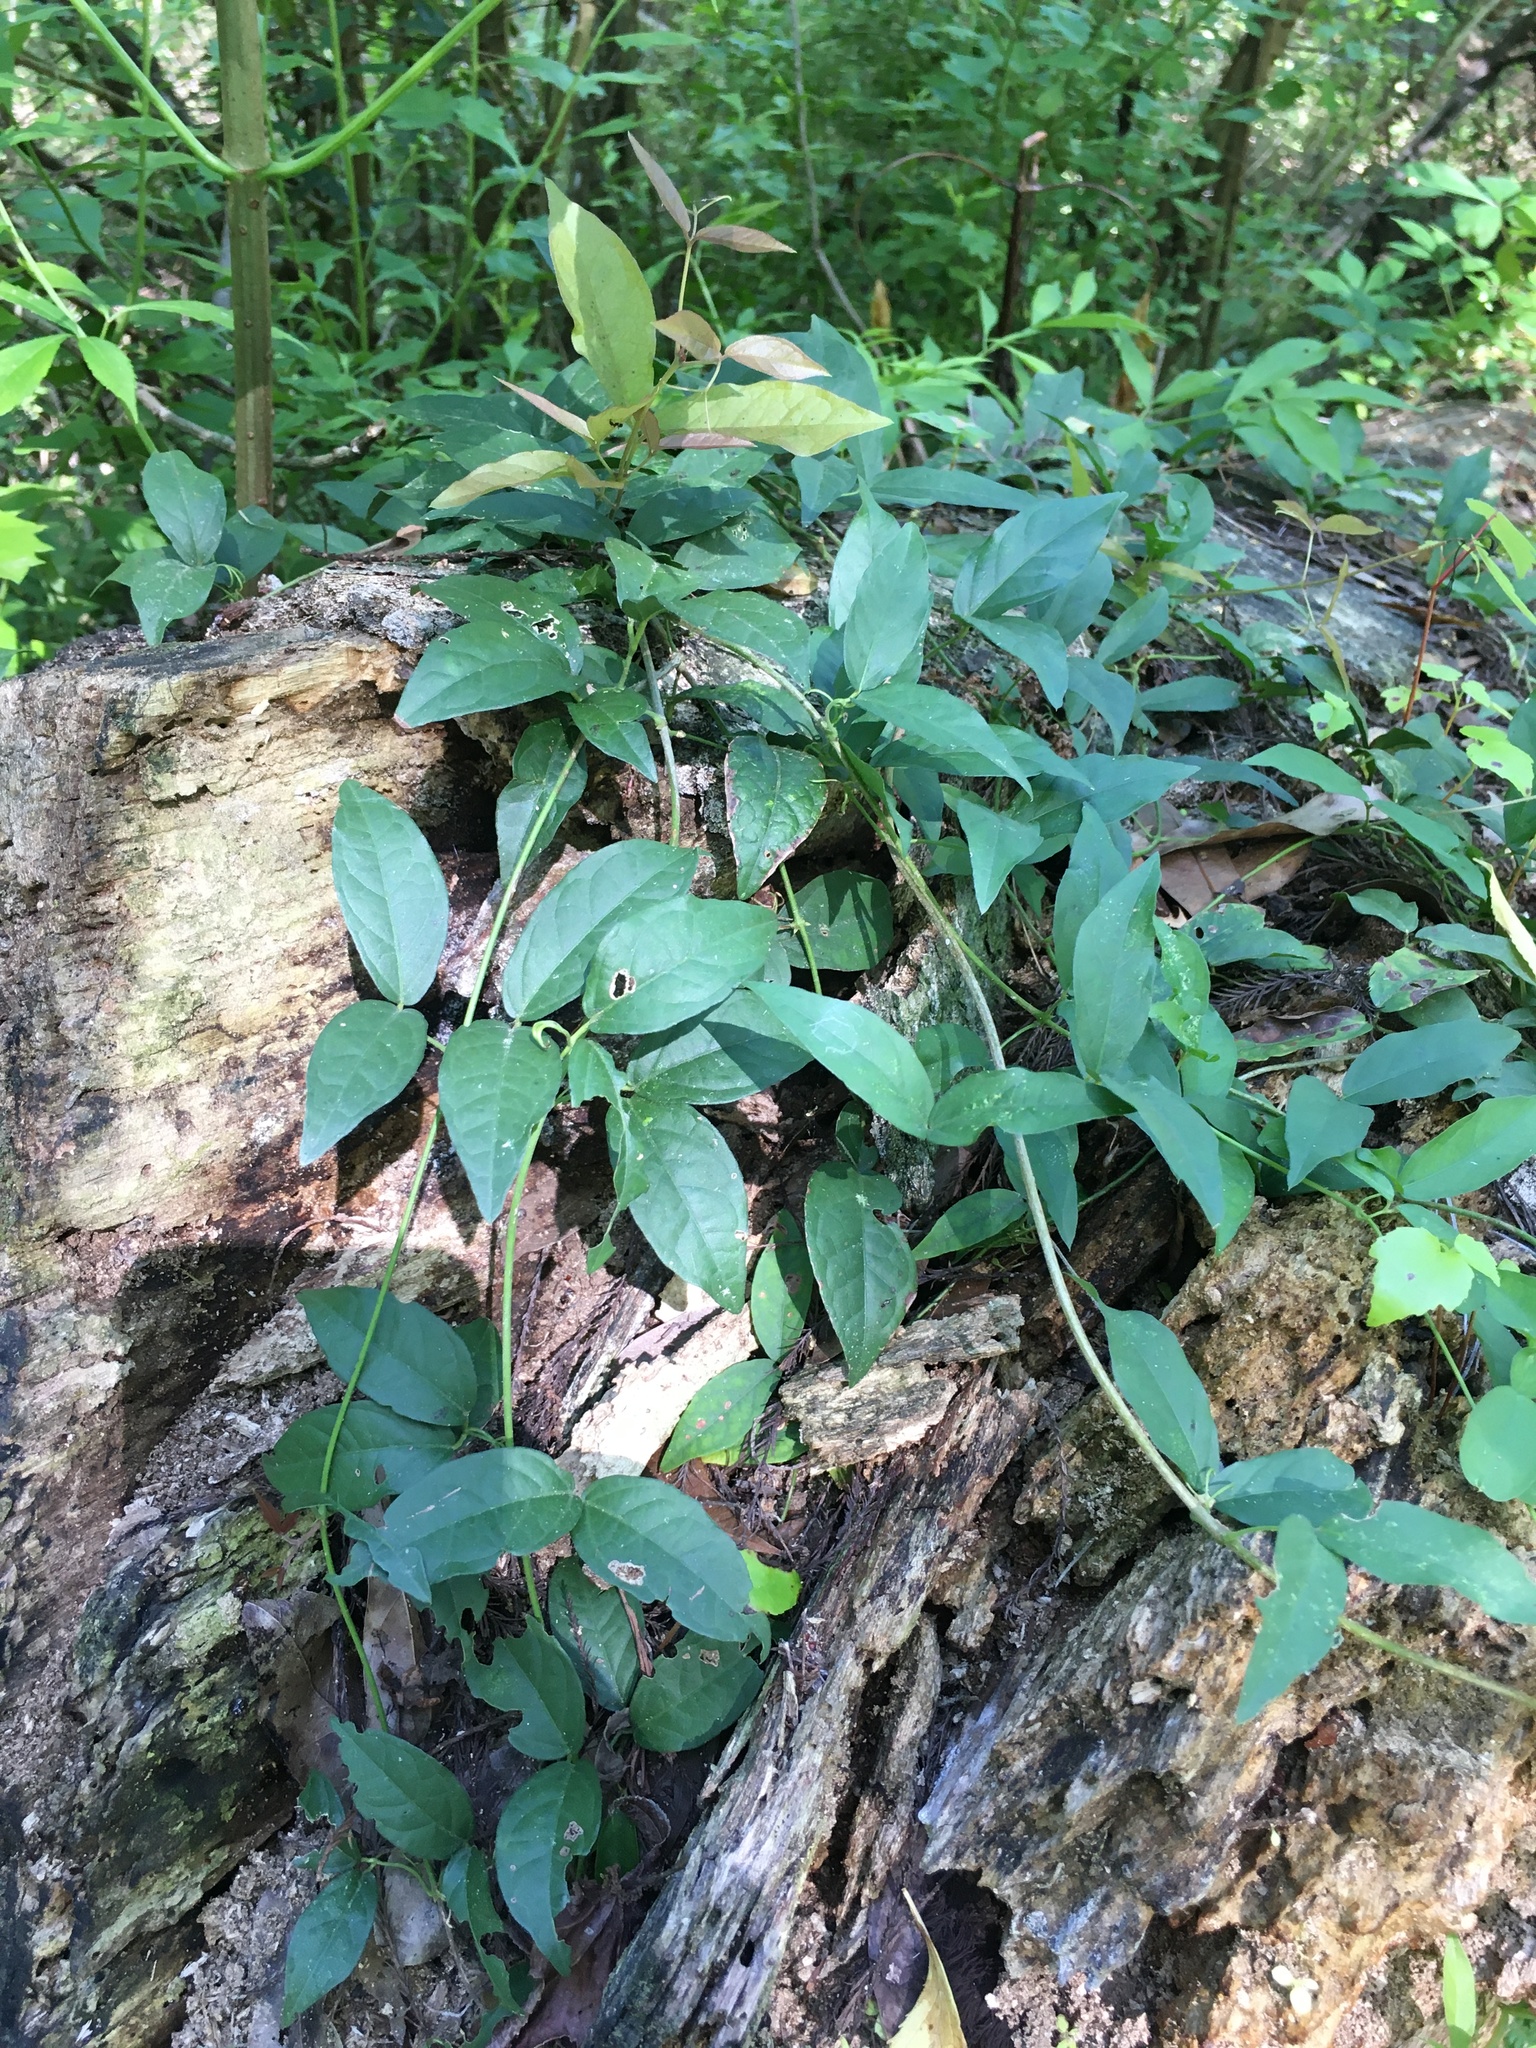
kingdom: Plantae
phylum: Tracheophyta
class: Magnoliopsida
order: Gentianales
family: Rubiaceae
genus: Paederia
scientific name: Paederia foetida
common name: Stinkvine
